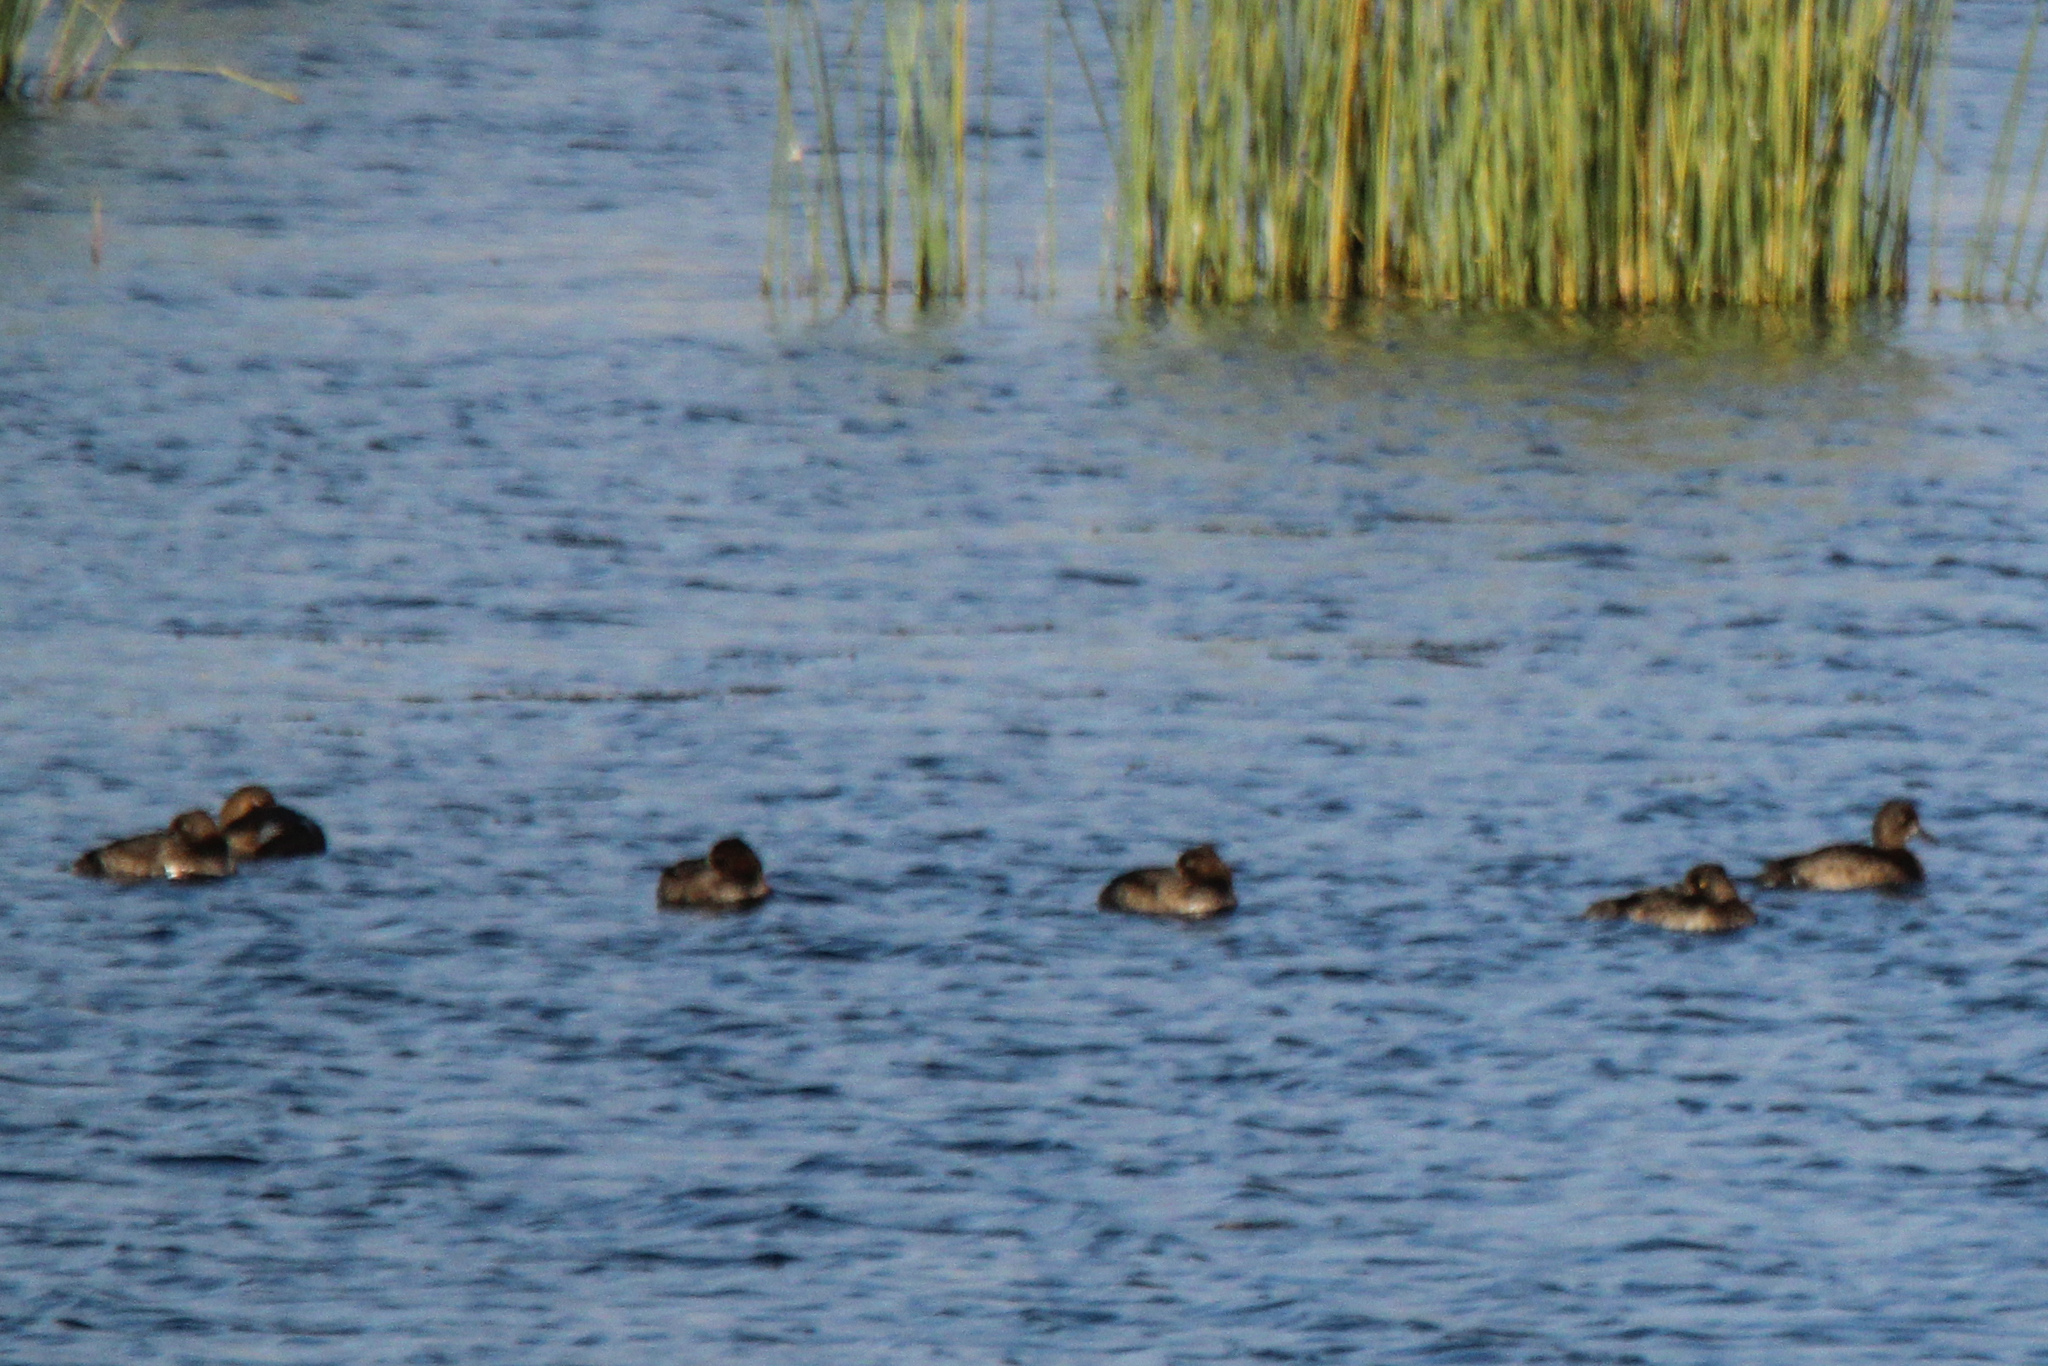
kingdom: Animalia
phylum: Chordata
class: Aves
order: Anseriformes
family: Anatidae
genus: Aythya
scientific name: Aythya fuligula
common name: Tufted duck
